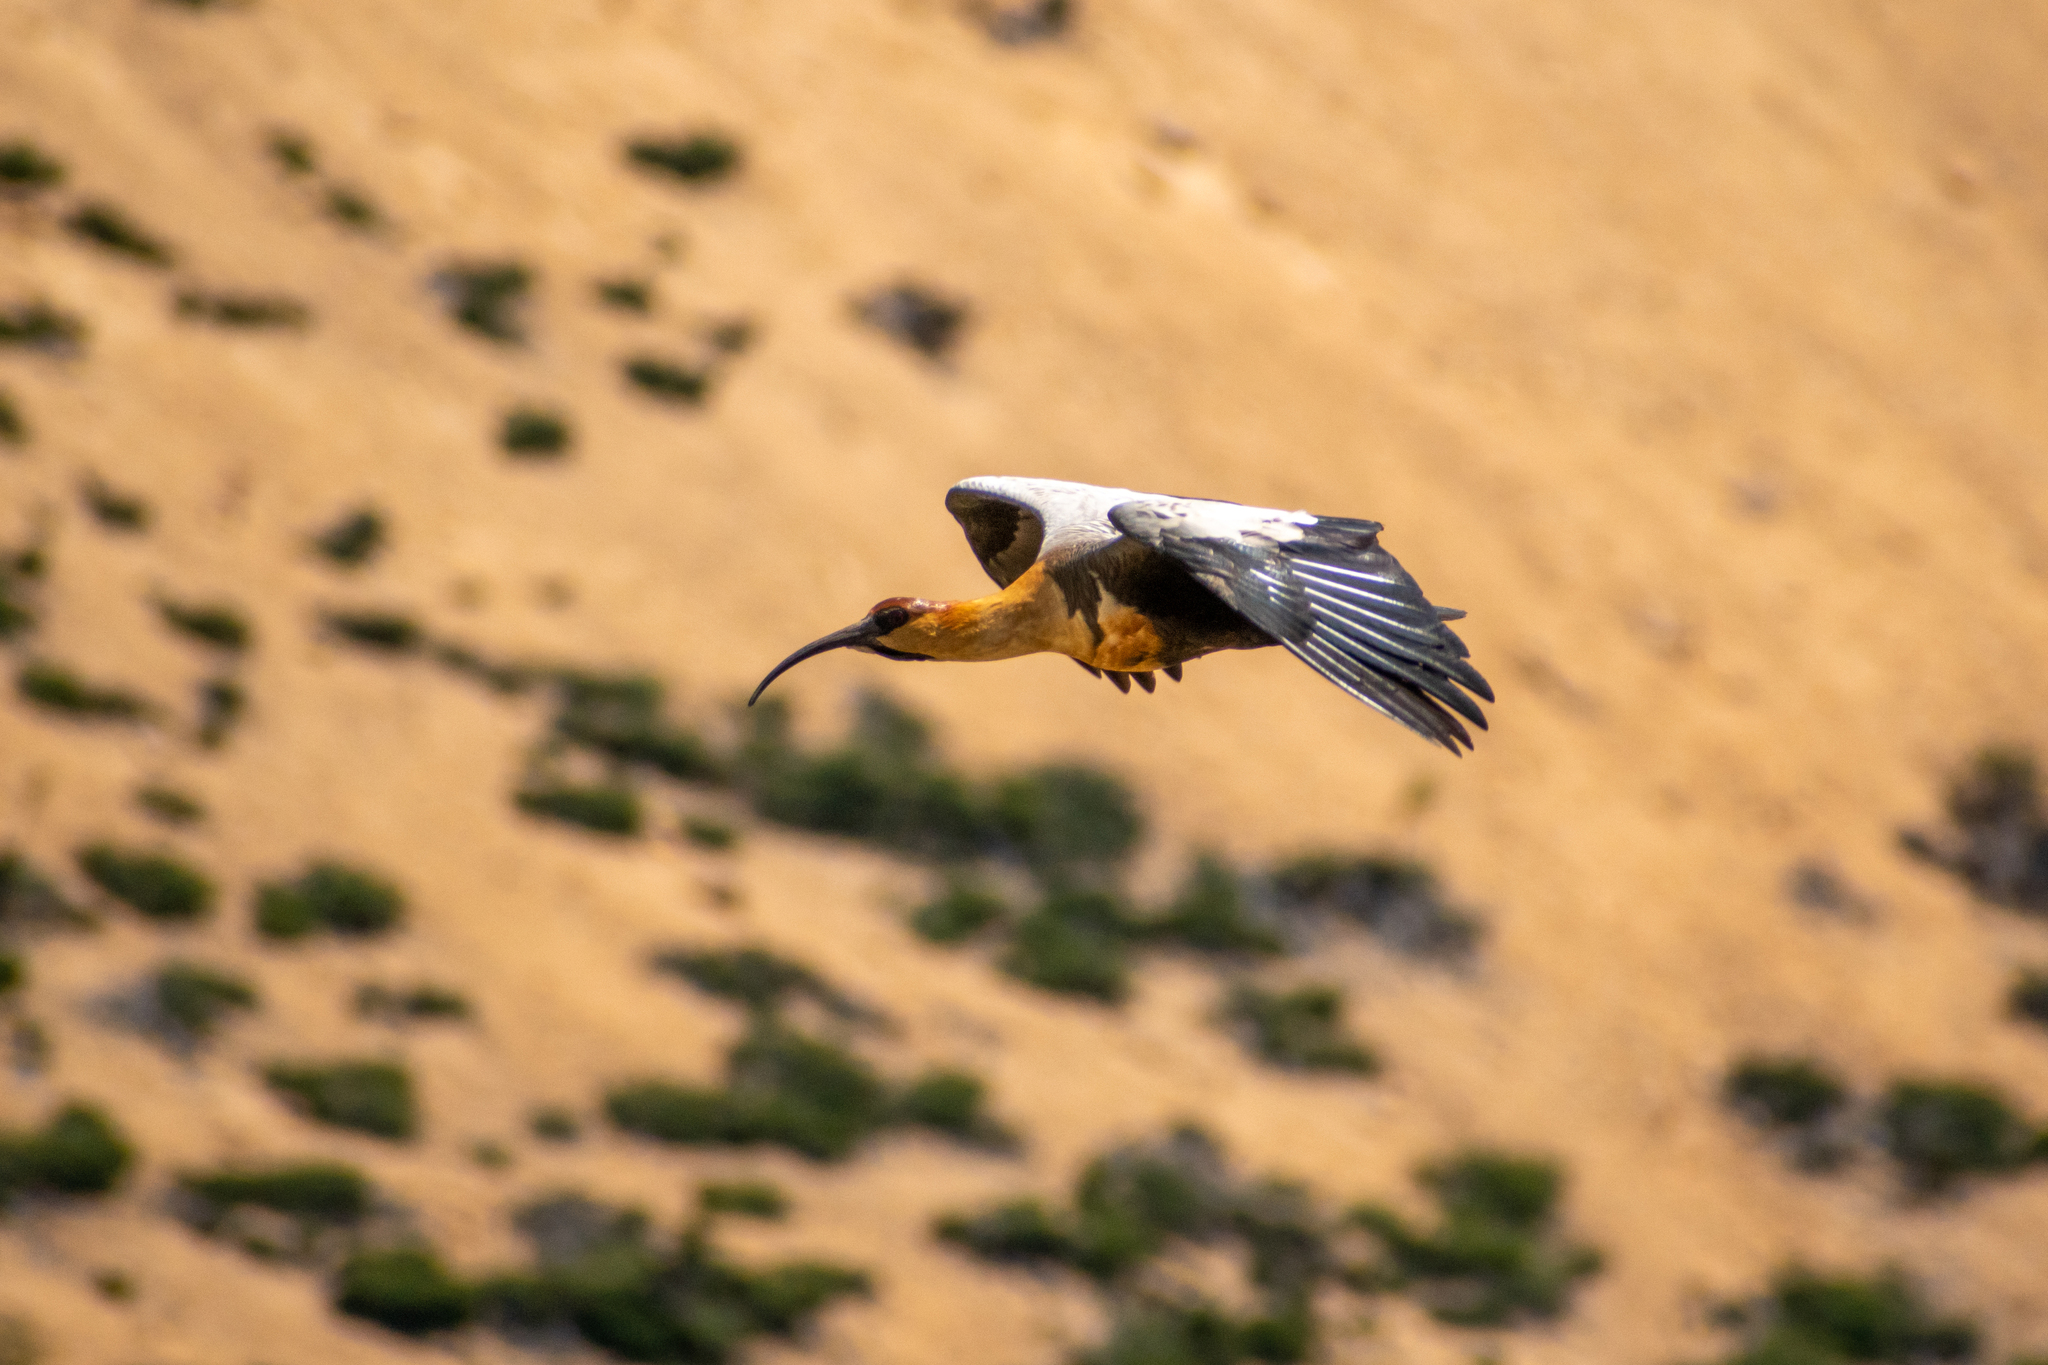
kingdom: Animalia
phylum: Chordata
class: Aves
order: Pelecaniformes
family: Threskiornithidae
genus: Theristicus
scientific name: Theristicus melanopis
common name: Black-faced ibis
